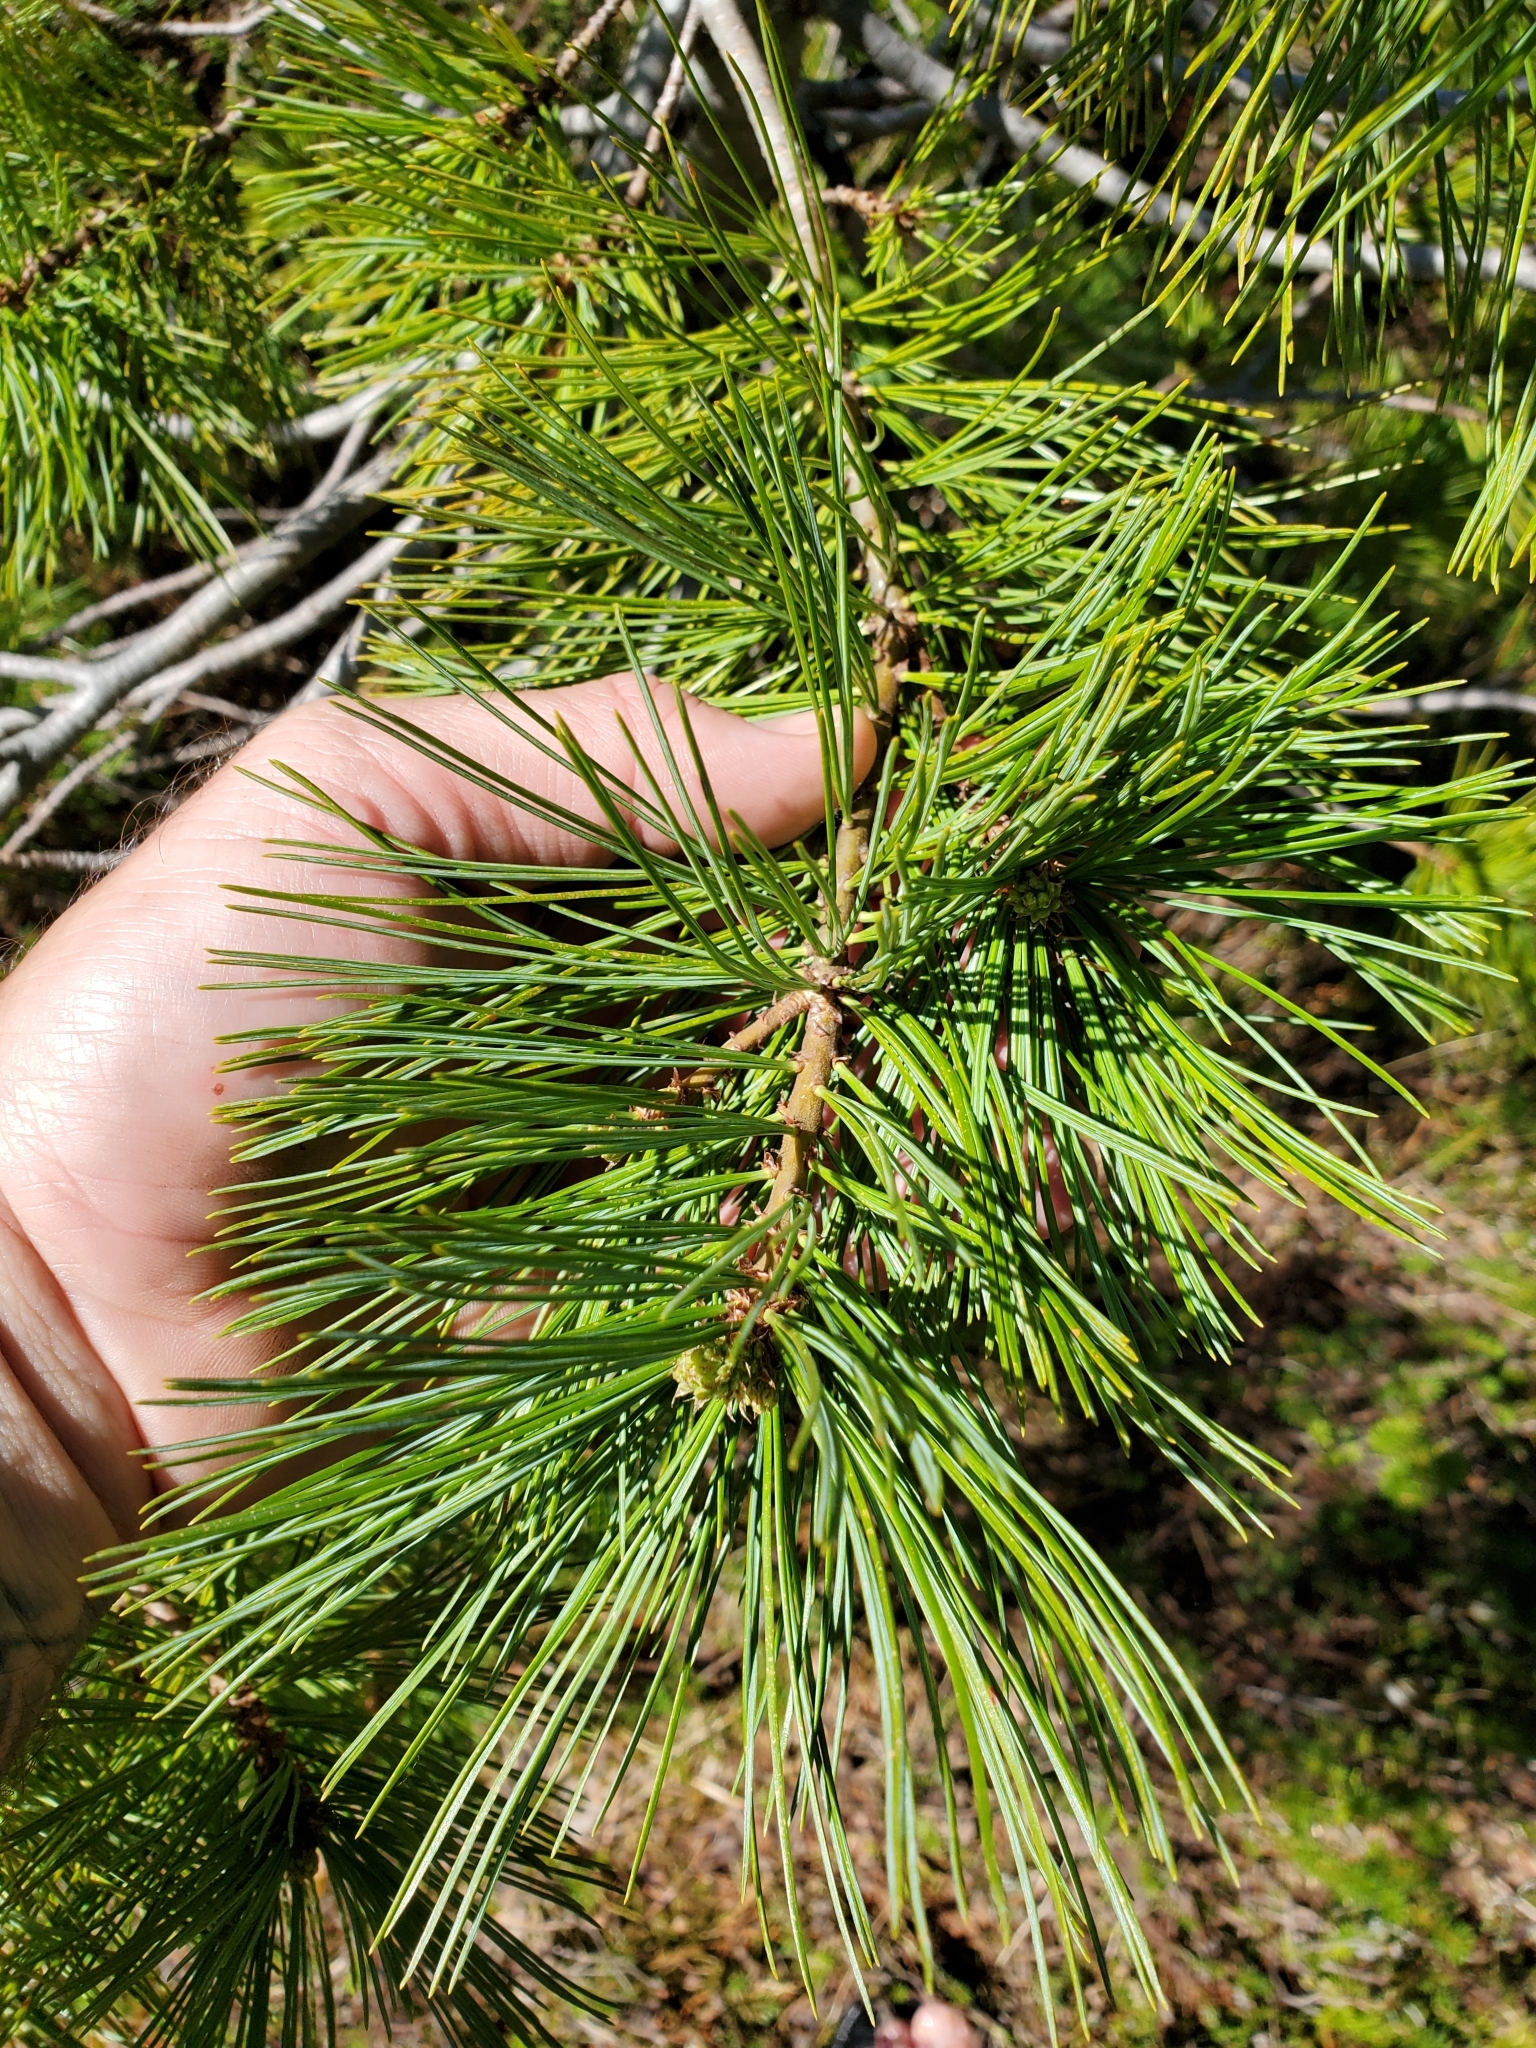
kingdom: Plantae
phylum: Tracheophyta
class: Pinopsida
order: Pinales
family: Pinaceae
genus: Pinus
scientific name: Pinus monticola
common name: Western white pine
